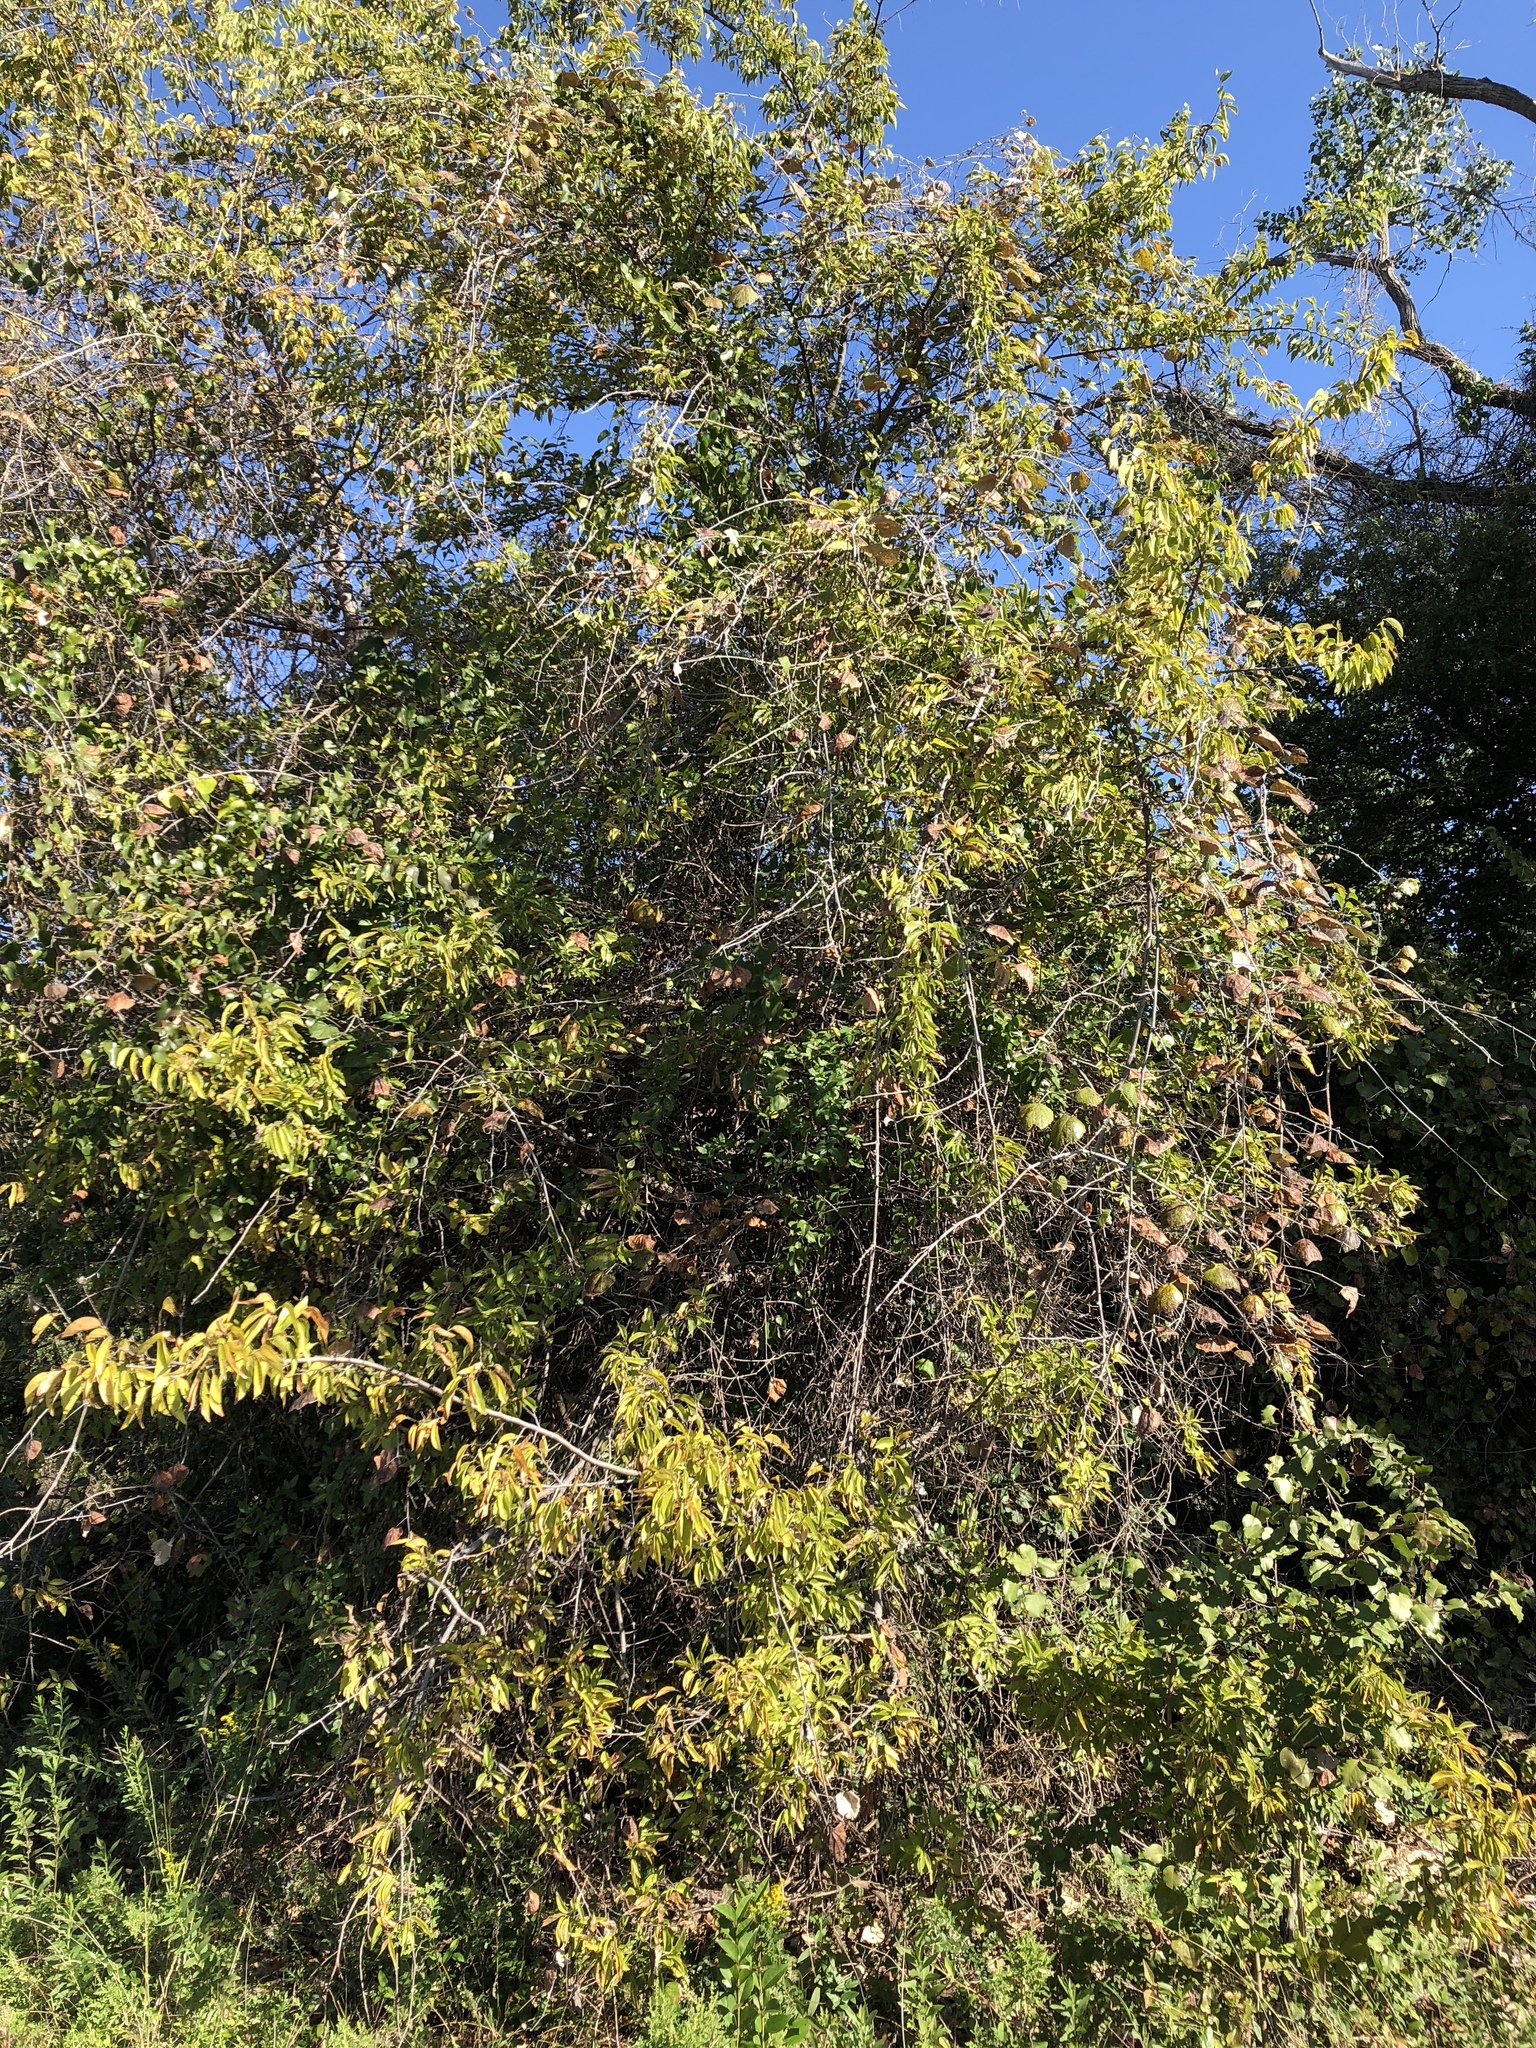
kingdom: Plantae
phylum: Tracheophyta
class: Magnoliopsida
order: Rosales
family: Cannabaceae
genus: Celtis
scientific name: Celtis laevigata
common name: Sugarberry
